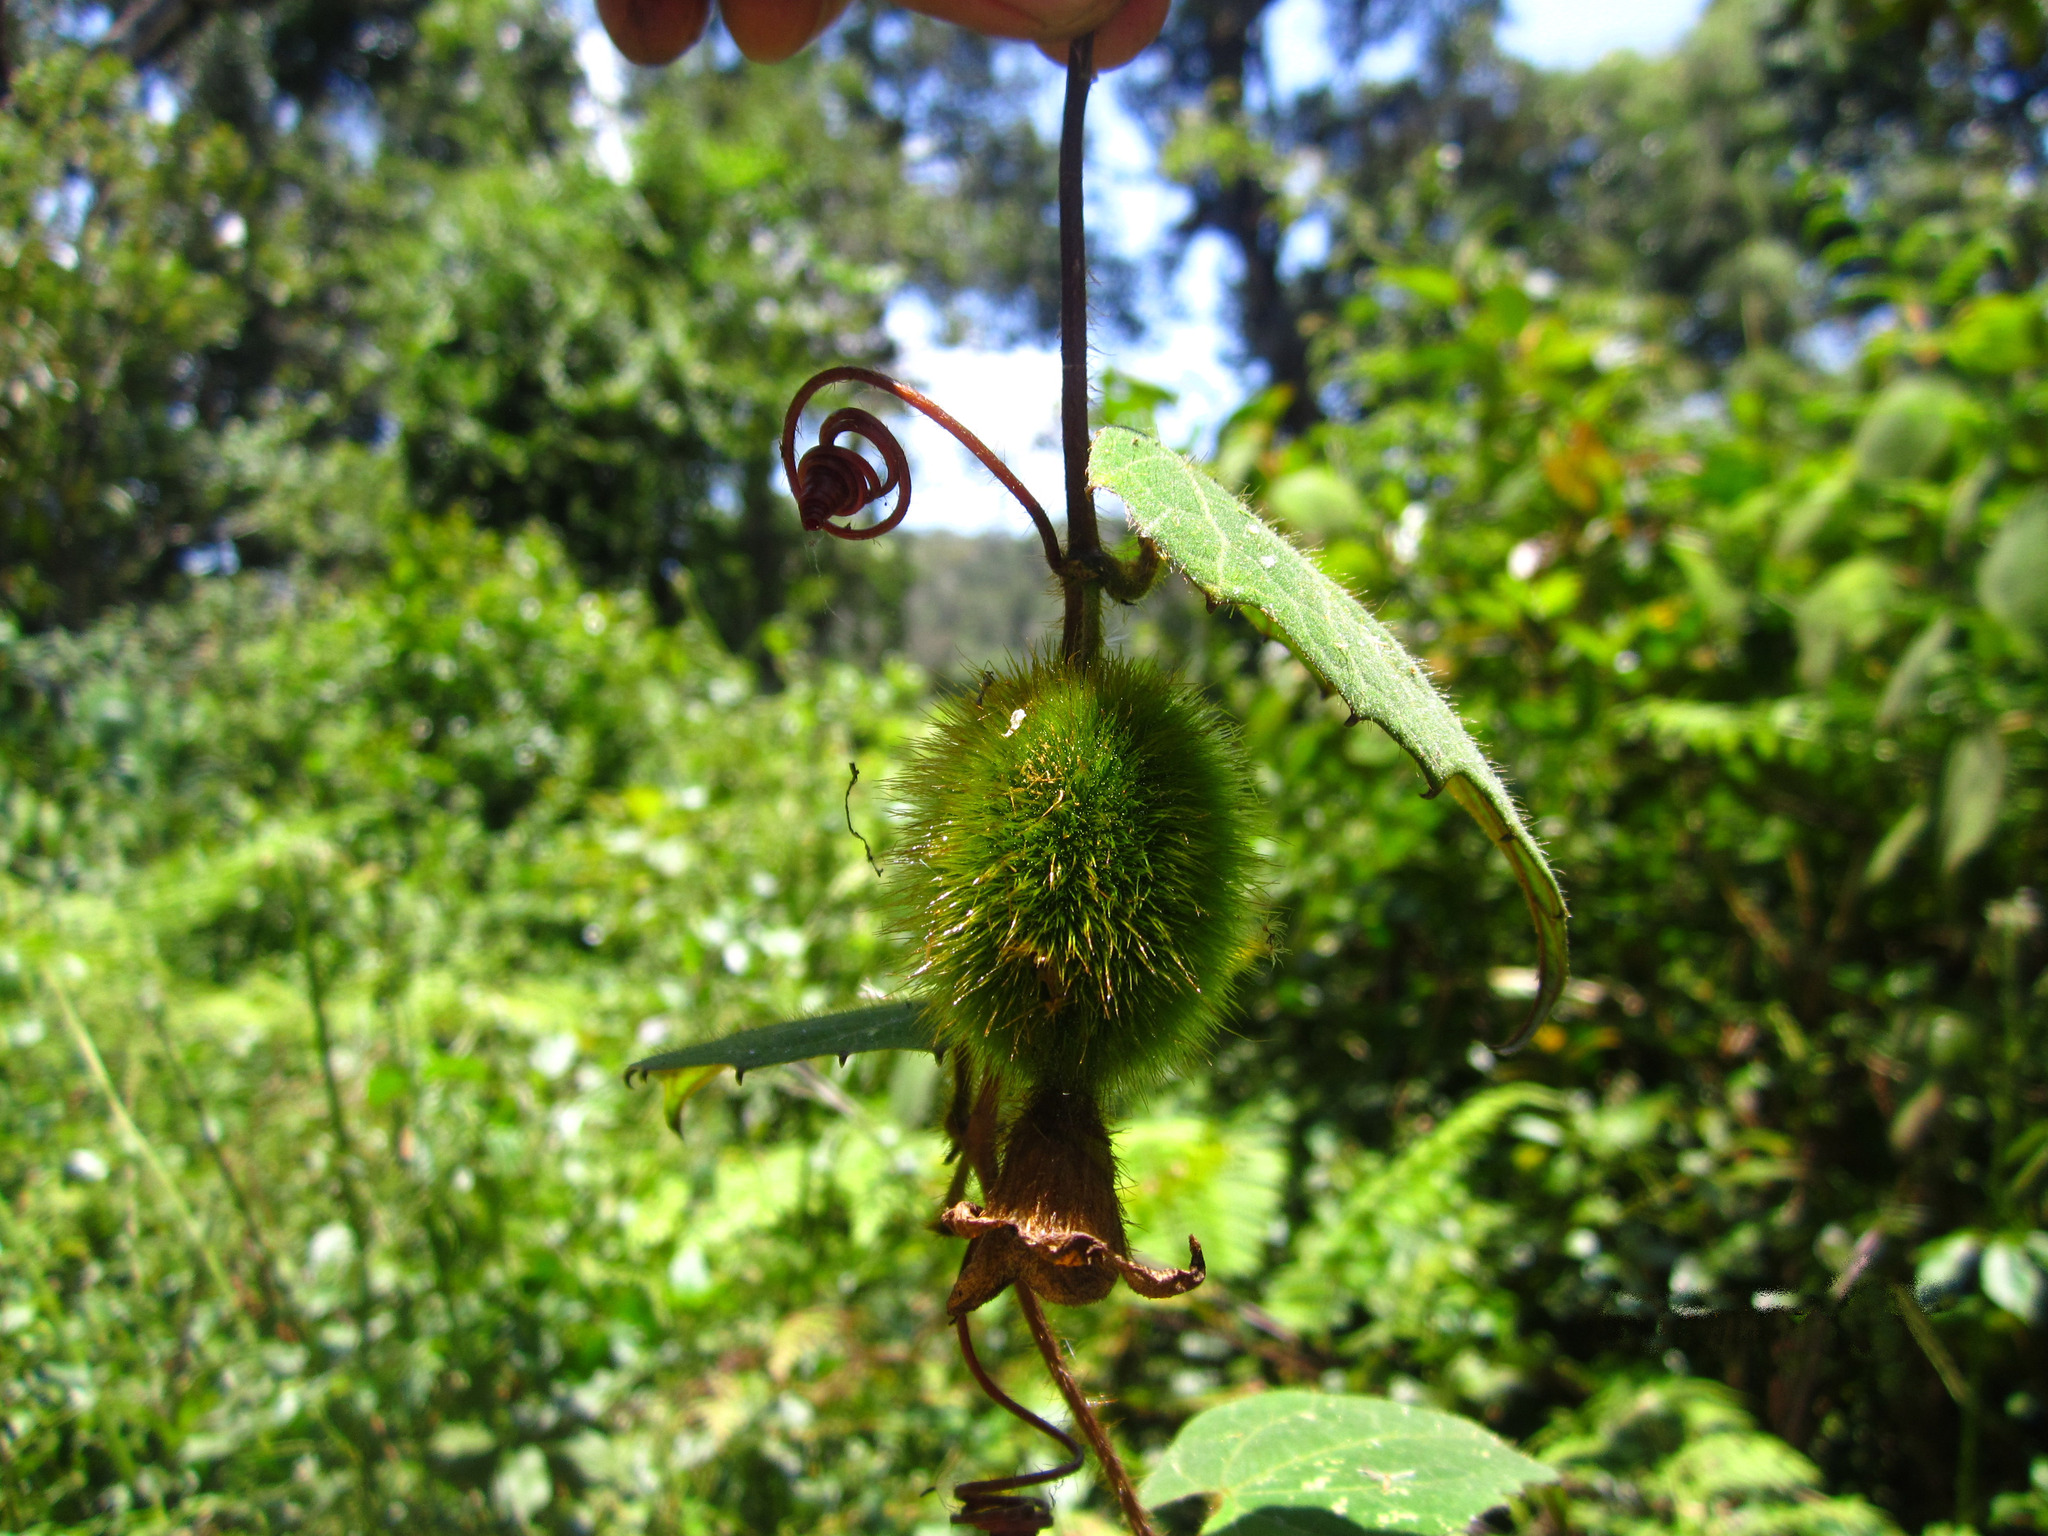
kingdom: Plantae
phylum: Tracheophyta
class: Magnoliopsida
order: Cucurbitales
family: Cucurbitaceae
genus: Raphidiocystis
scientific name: Raphidiocystis brachypoda
